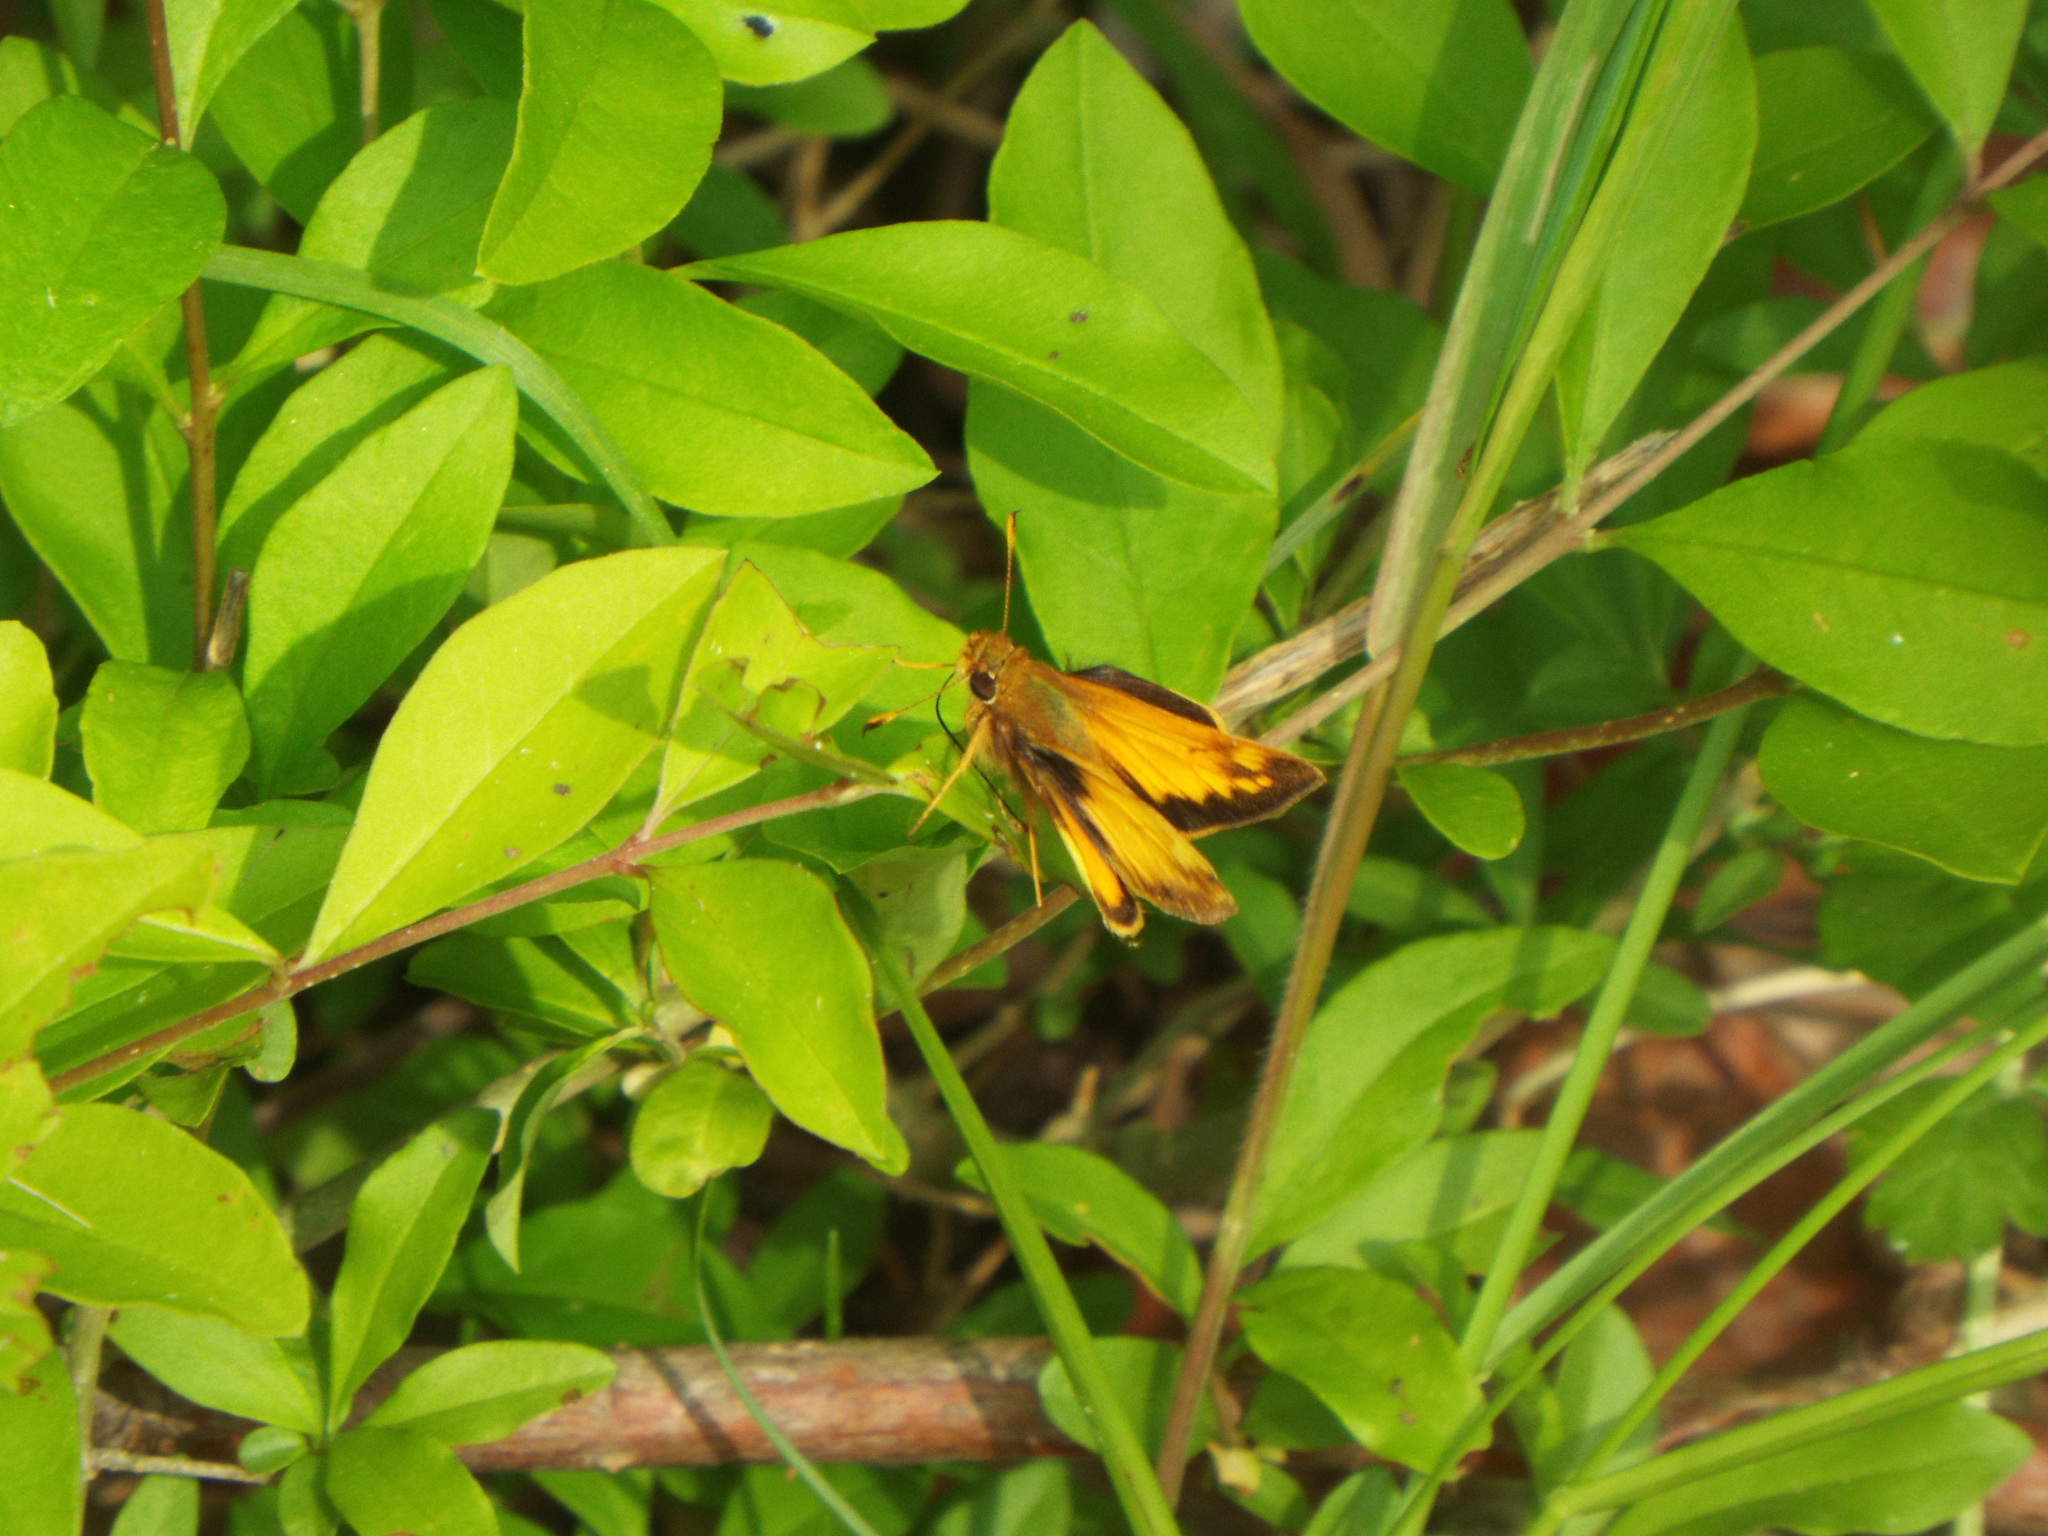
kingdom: Animalia
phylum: Arthropoda
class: Insecta
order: Lepidoptera
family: Hesperiidae
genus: Lon
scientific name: Lon zabulon
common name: Zabulon skipper
